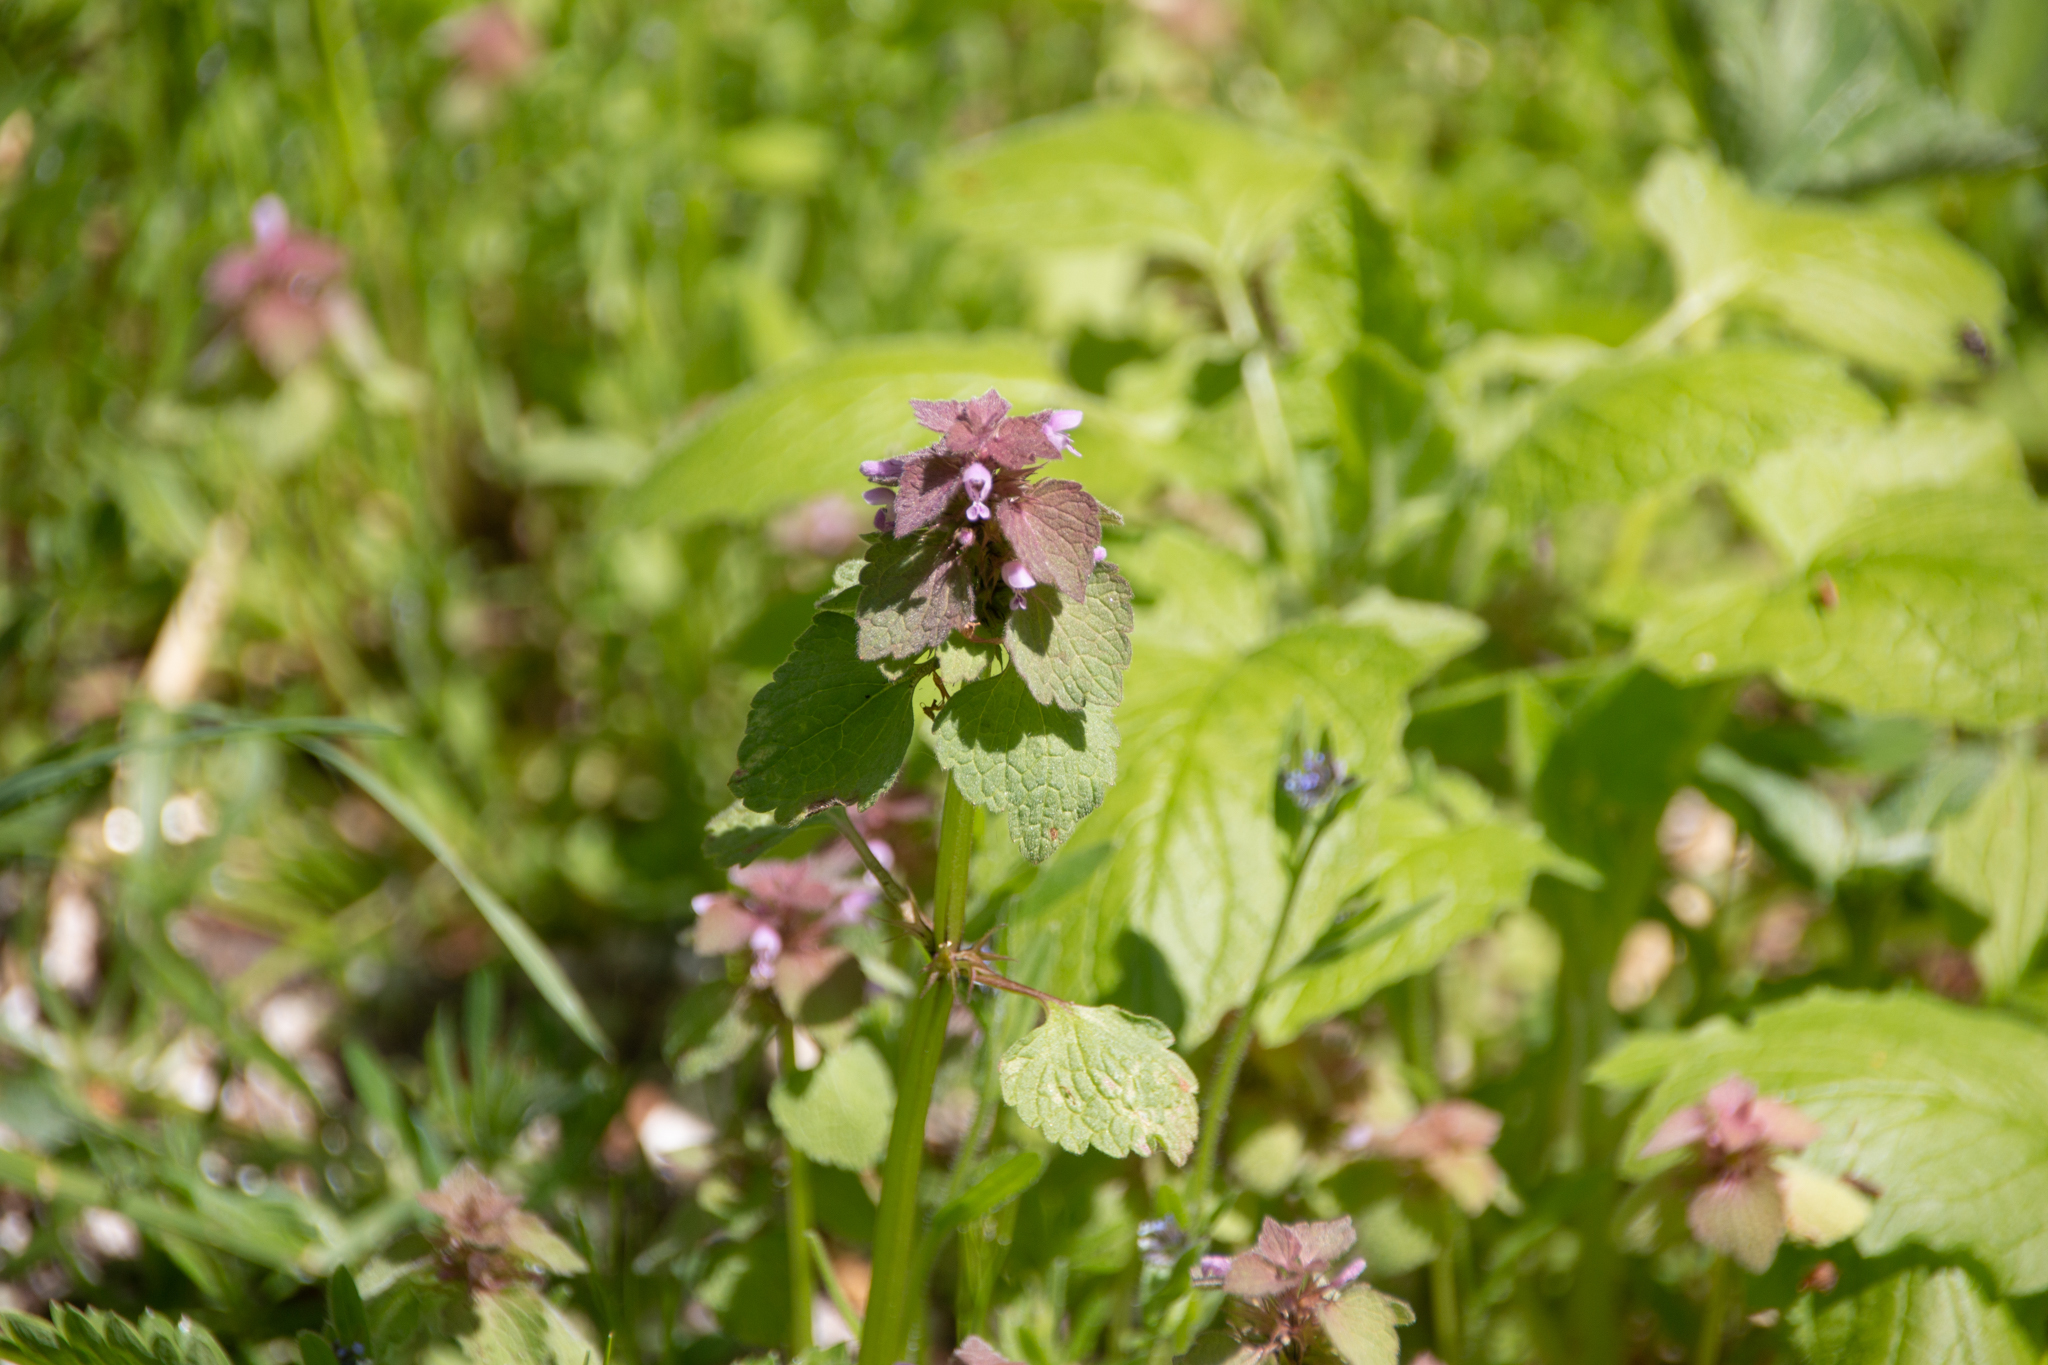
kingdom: Plantae
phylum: Tracheophyta
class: Magnoliopsida
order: Lamiales
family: Lamiaceae
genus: Lamium
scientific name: Lamium purpureum
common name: Red dead-nettle
